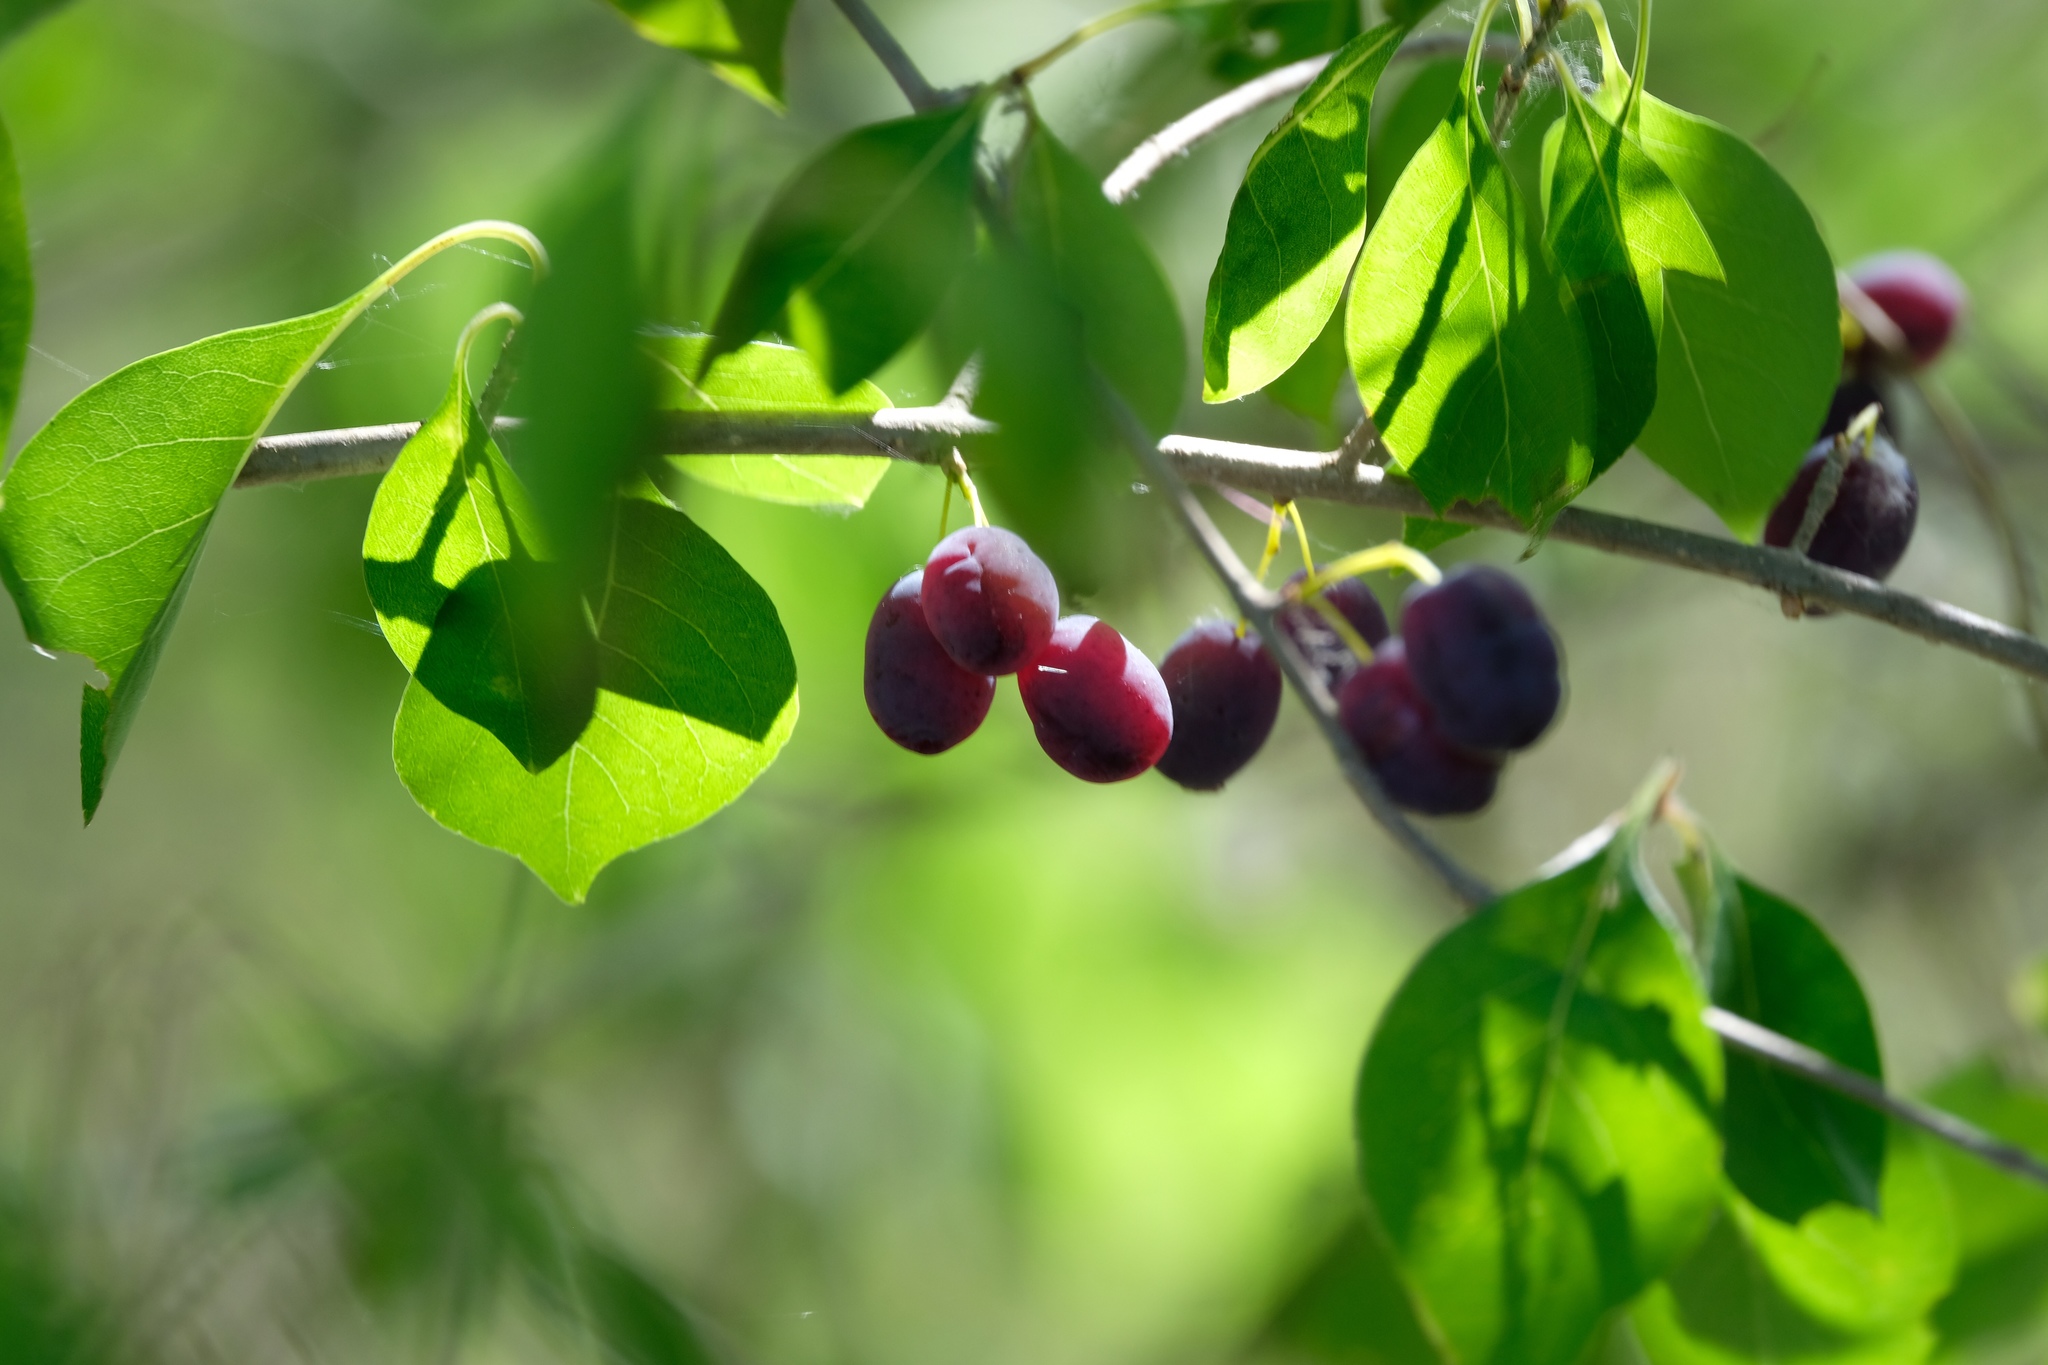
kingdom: Plantae
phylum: Tracheophyta
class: Magnoliopsida
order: Lamiales
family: Oleaceae
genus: Forestiera
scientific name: Forestiera acuminata
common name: Swamp-privet
